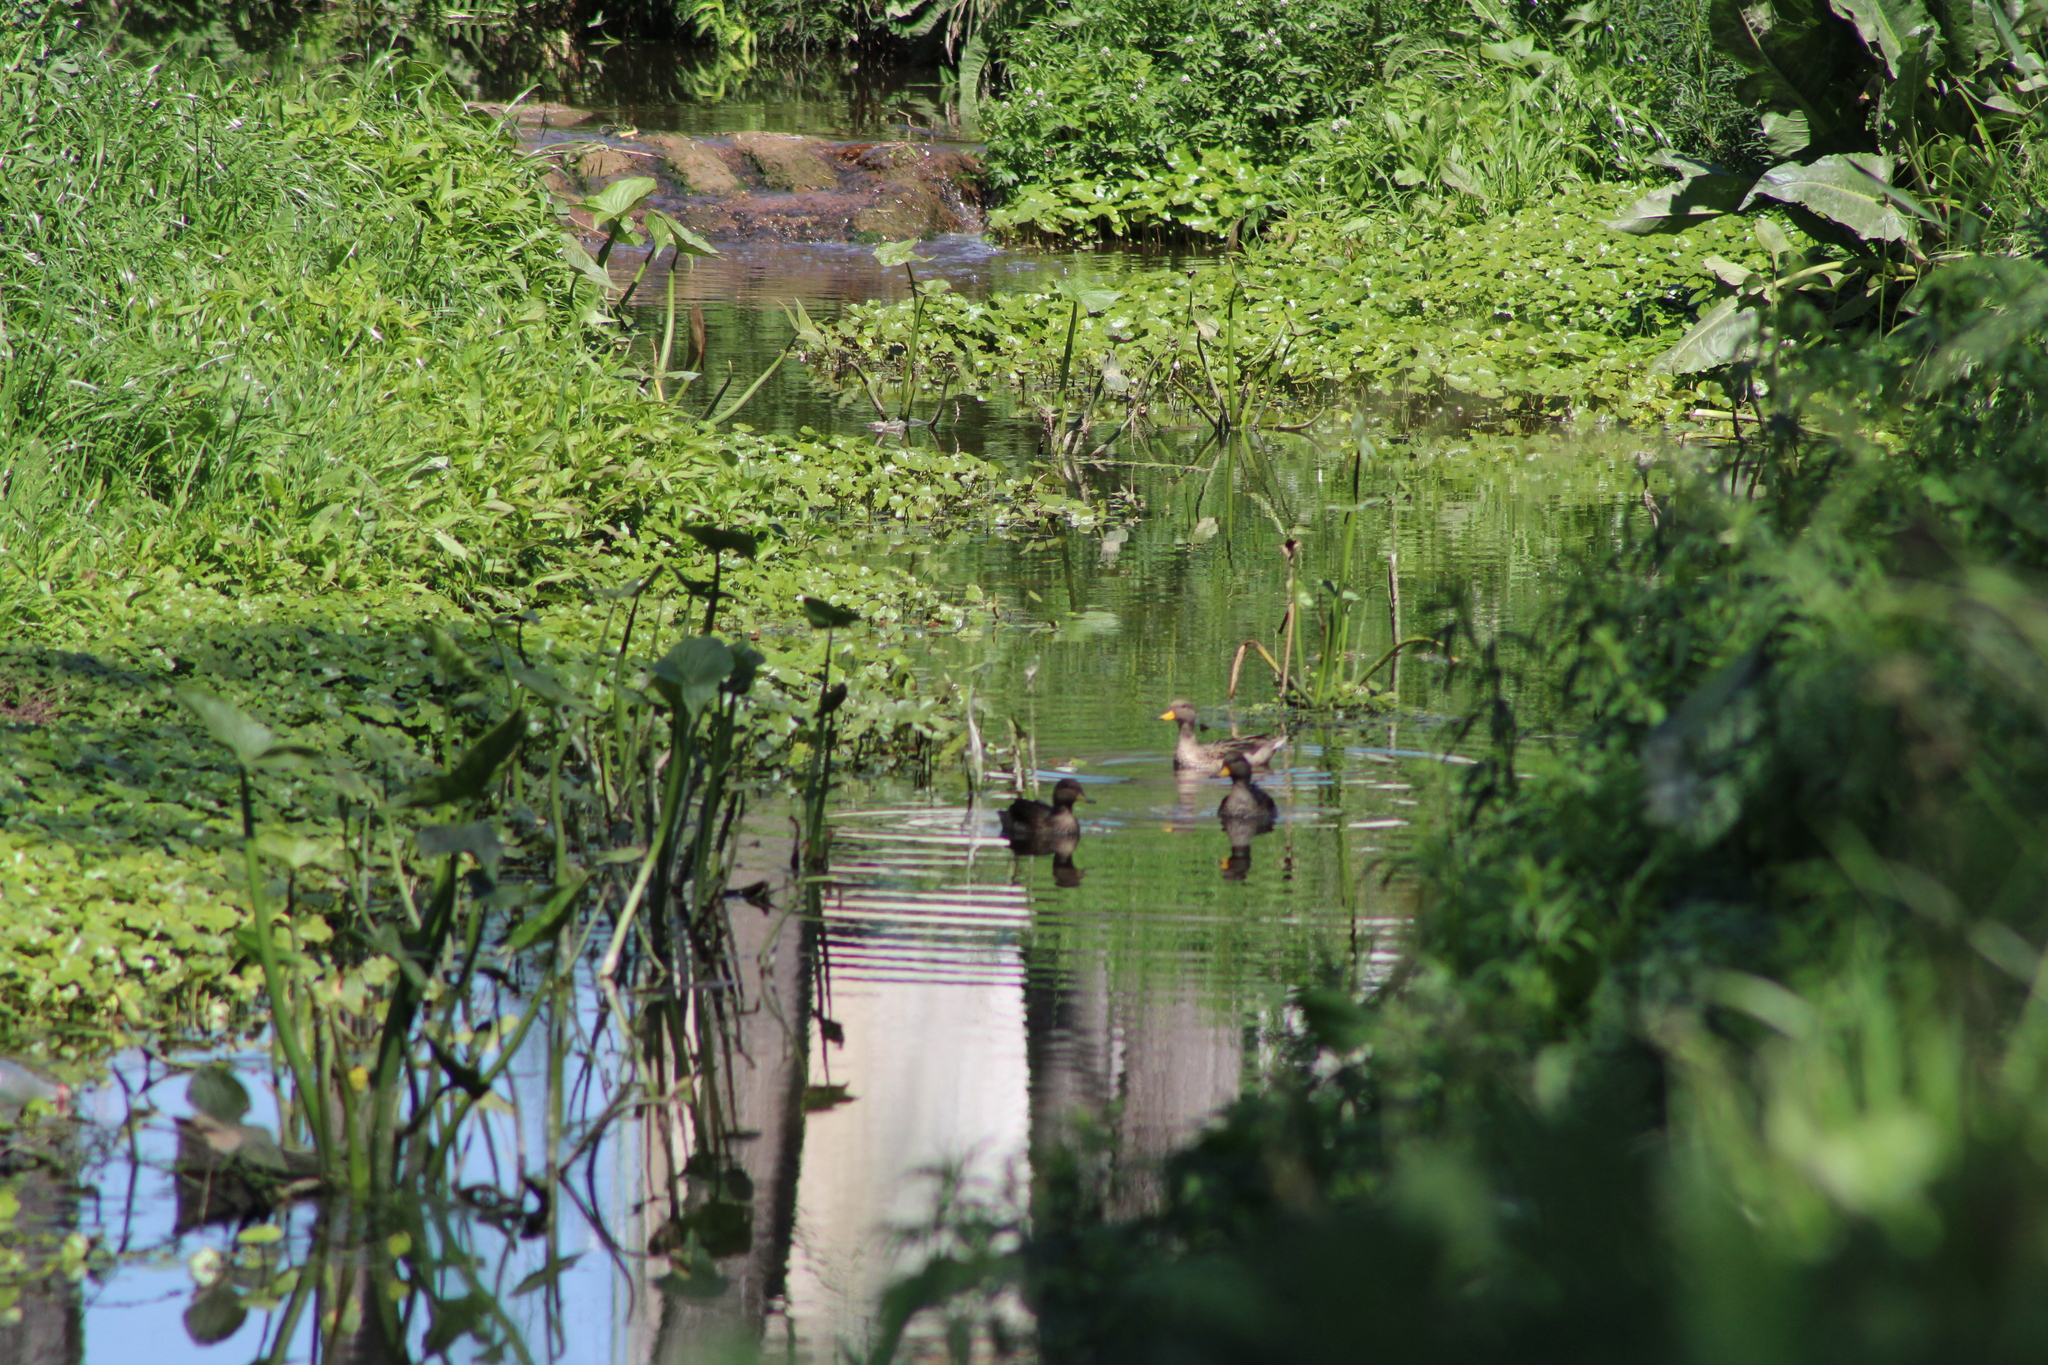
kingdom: Animalia
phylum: Chordata
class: Aves
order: Anseriformes
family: Anatidae
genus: Anas
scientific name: Anas flavirostris
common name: Yellow-billed teal
